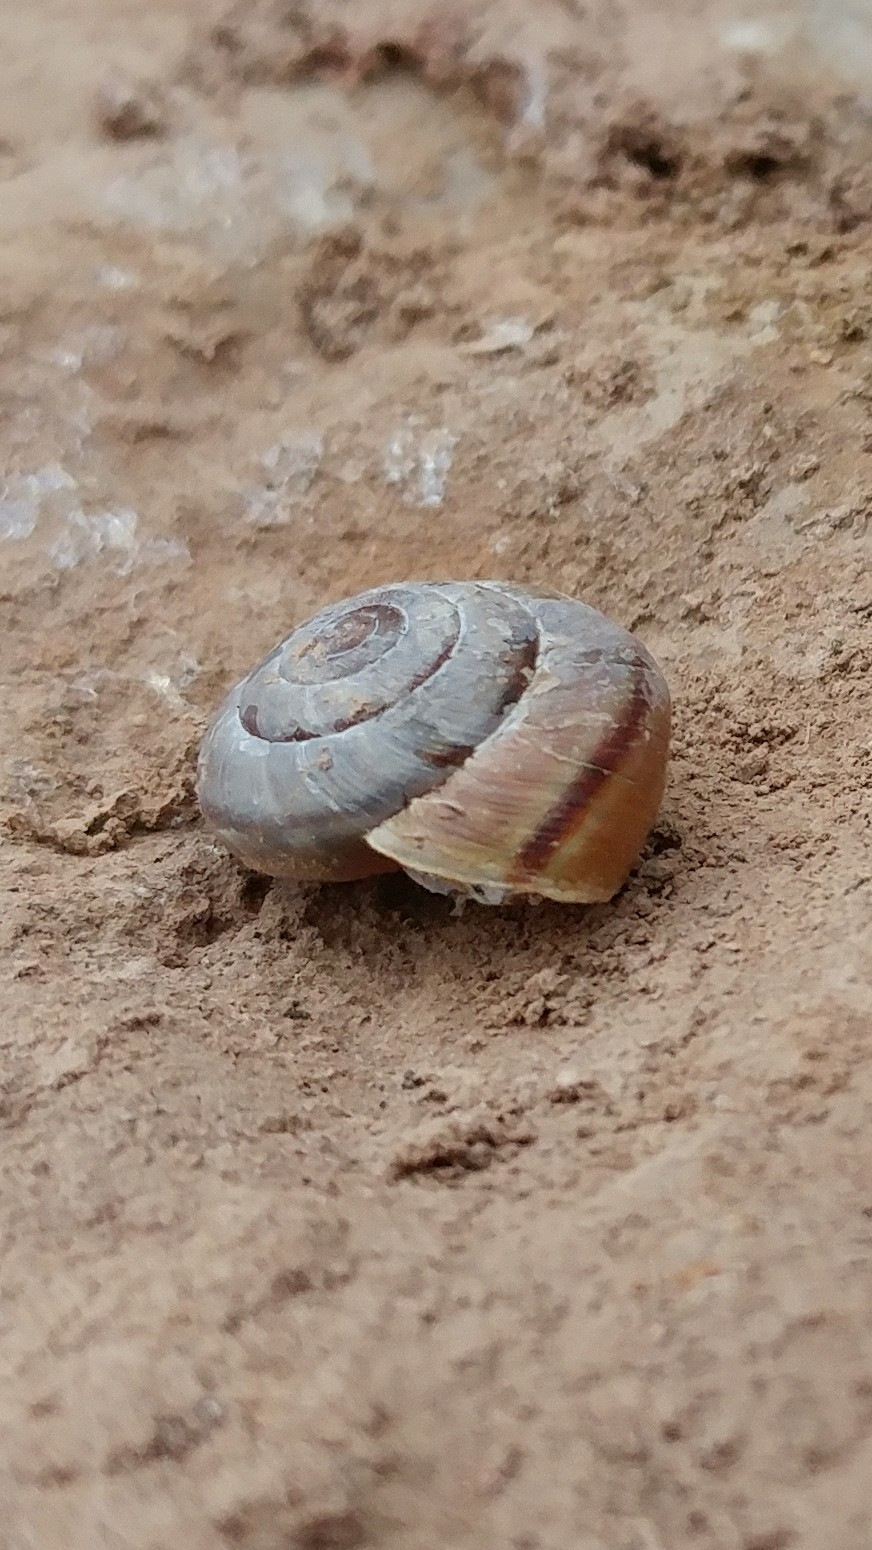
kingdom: Animalia
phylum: Mollusca
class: Gastropoda
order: Stylommatophora
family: Xanthonychidae
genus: Micrarionta
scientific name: Micrarionta gabbii
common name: Gabb's snail
